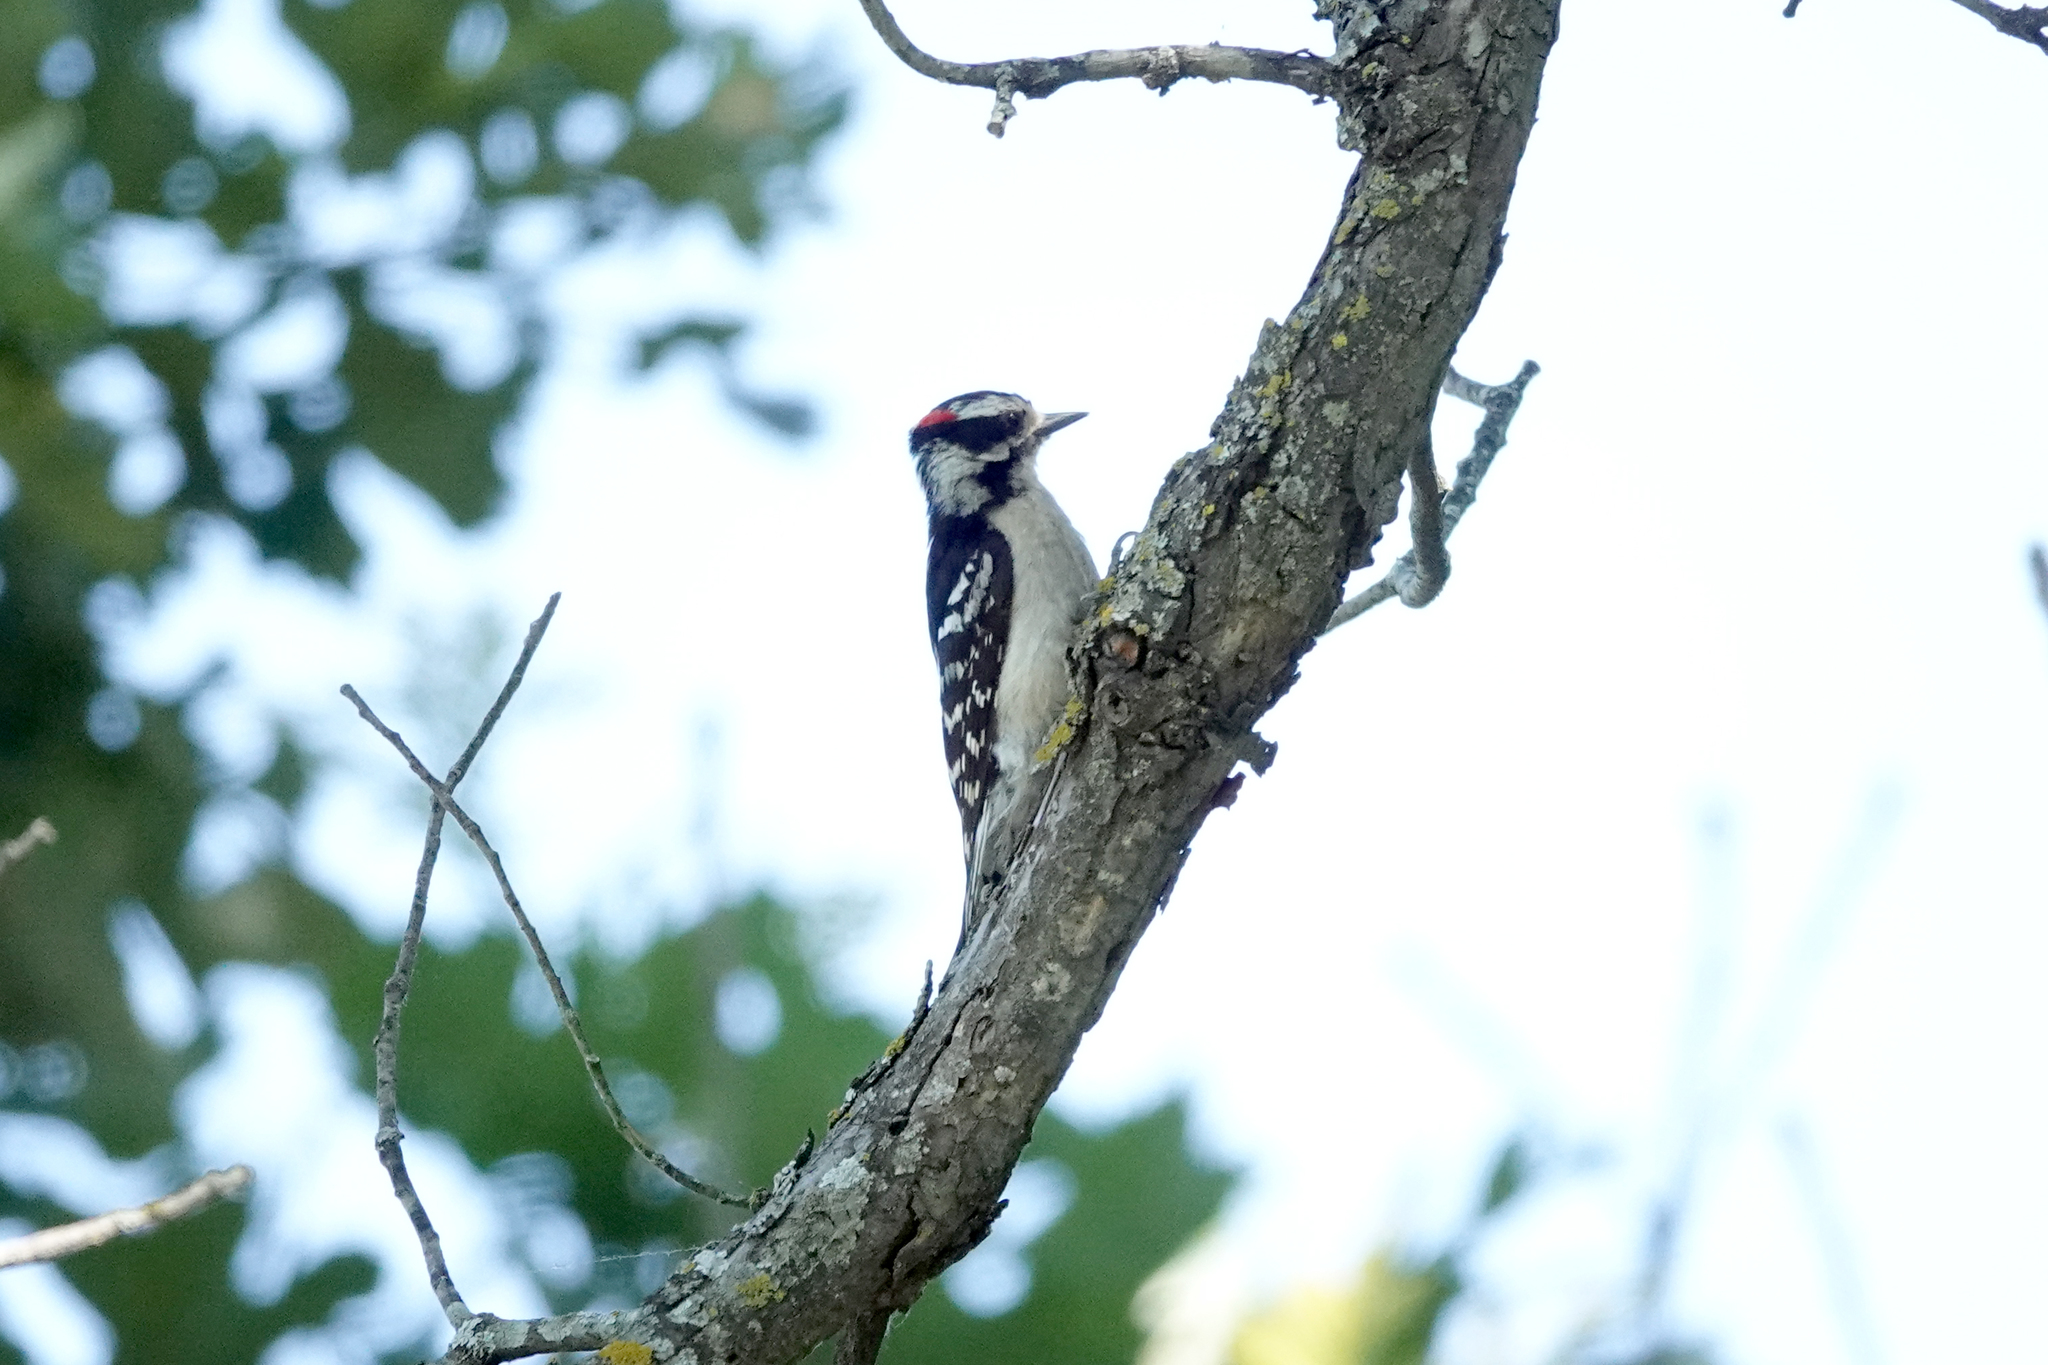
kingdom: Animalia
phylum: Chordata
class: Aves
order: Piciformes
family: Picidae
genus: Dryobates
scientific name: Dryobates pubescens
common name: Downy woodpecker
